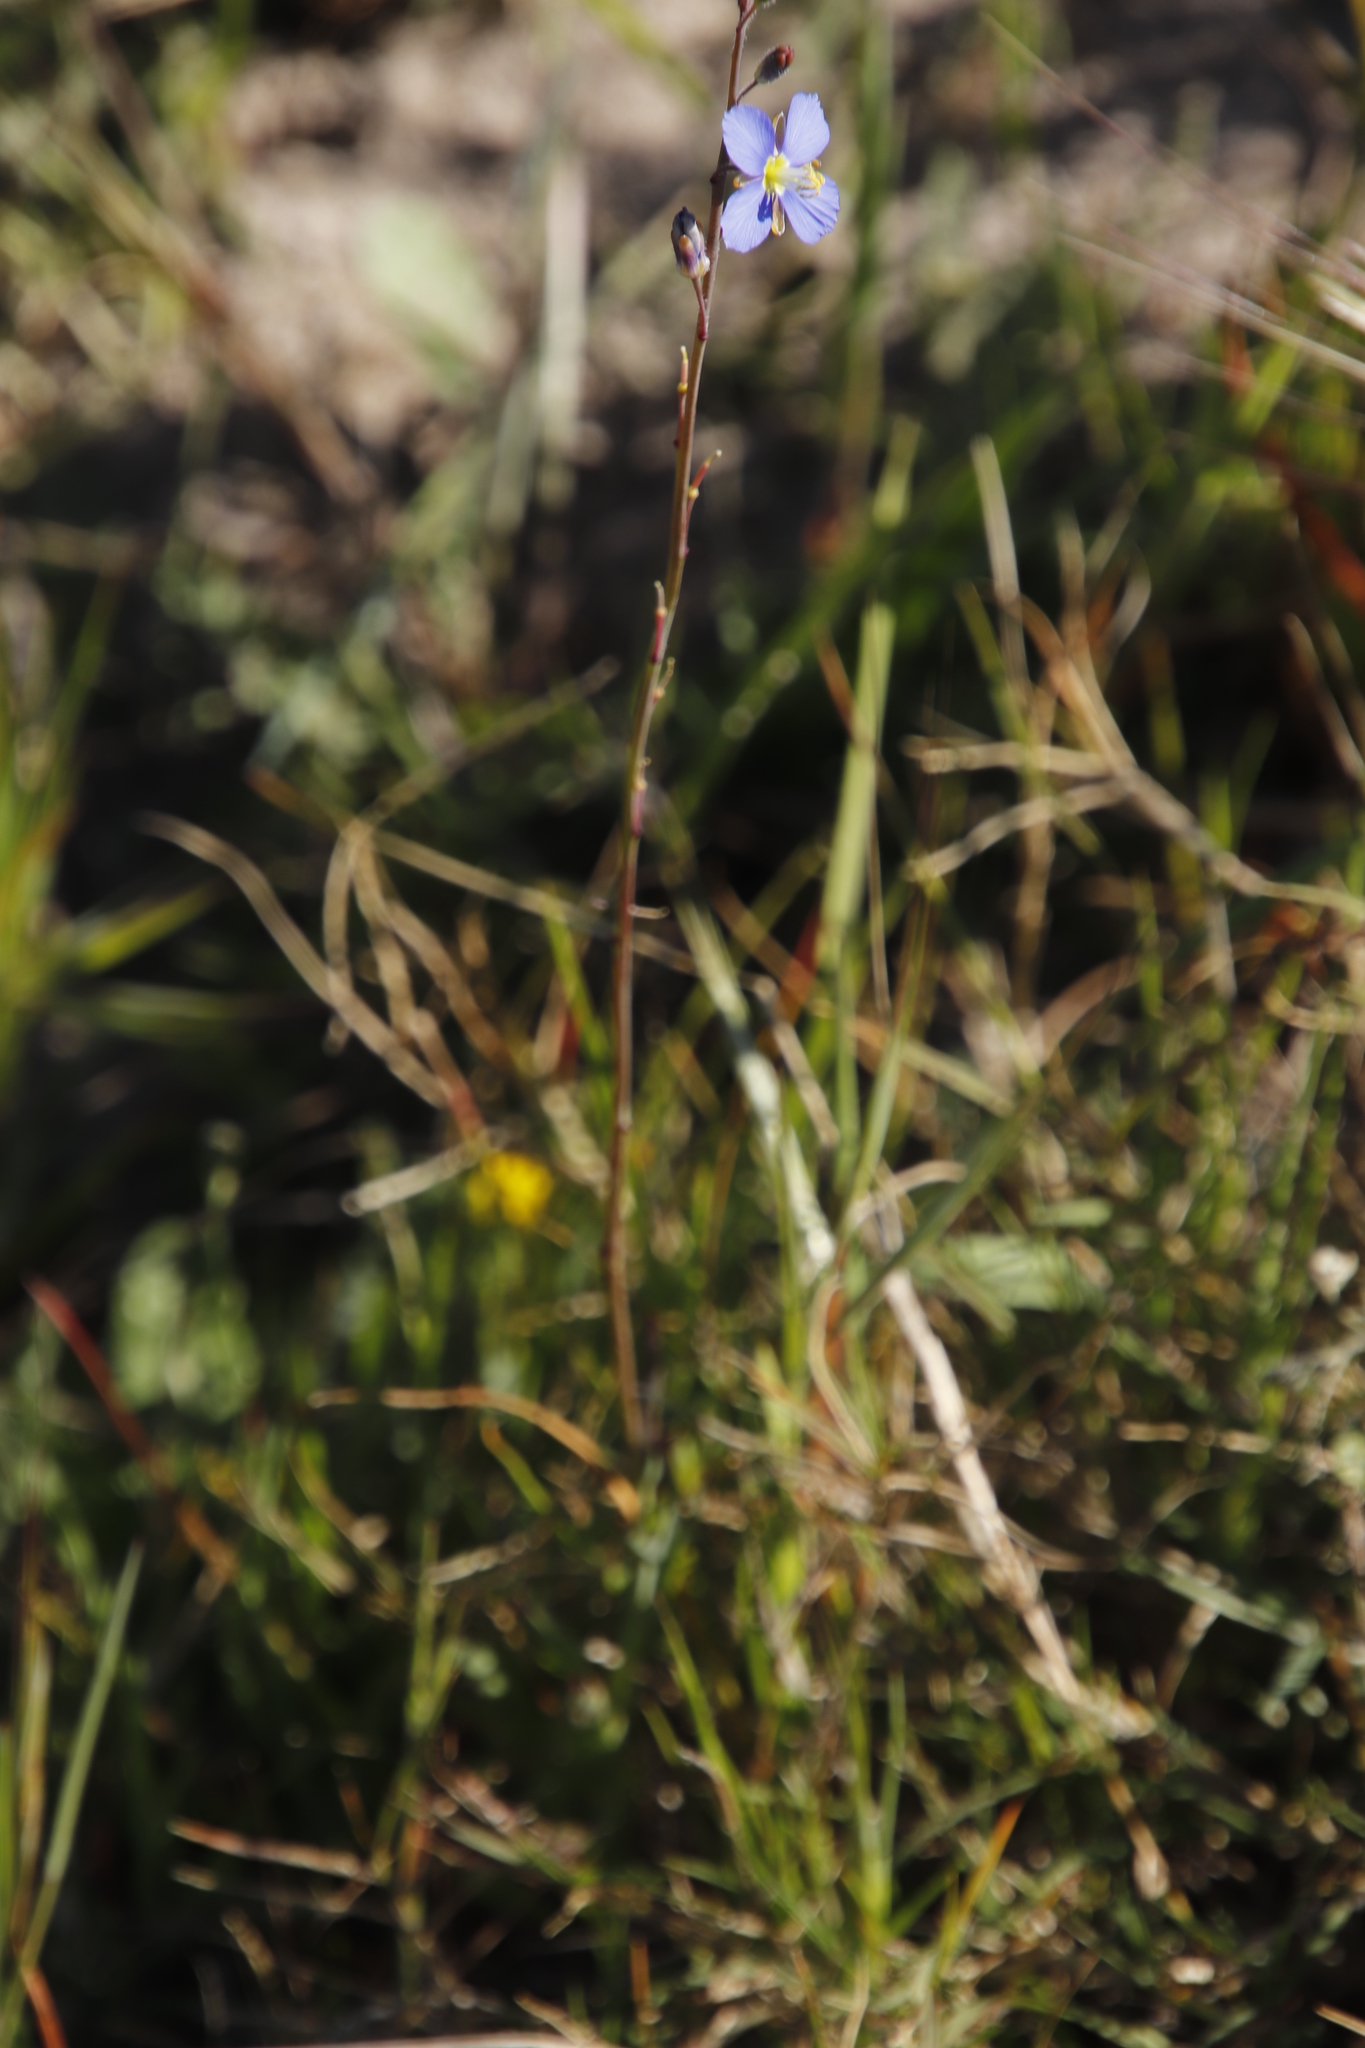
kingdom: Plantae
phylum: Tracheophyta
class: Magnoliopsida
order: Brassicales
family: Brassicaceae
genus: Heliophila
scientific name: Heliophila africana
